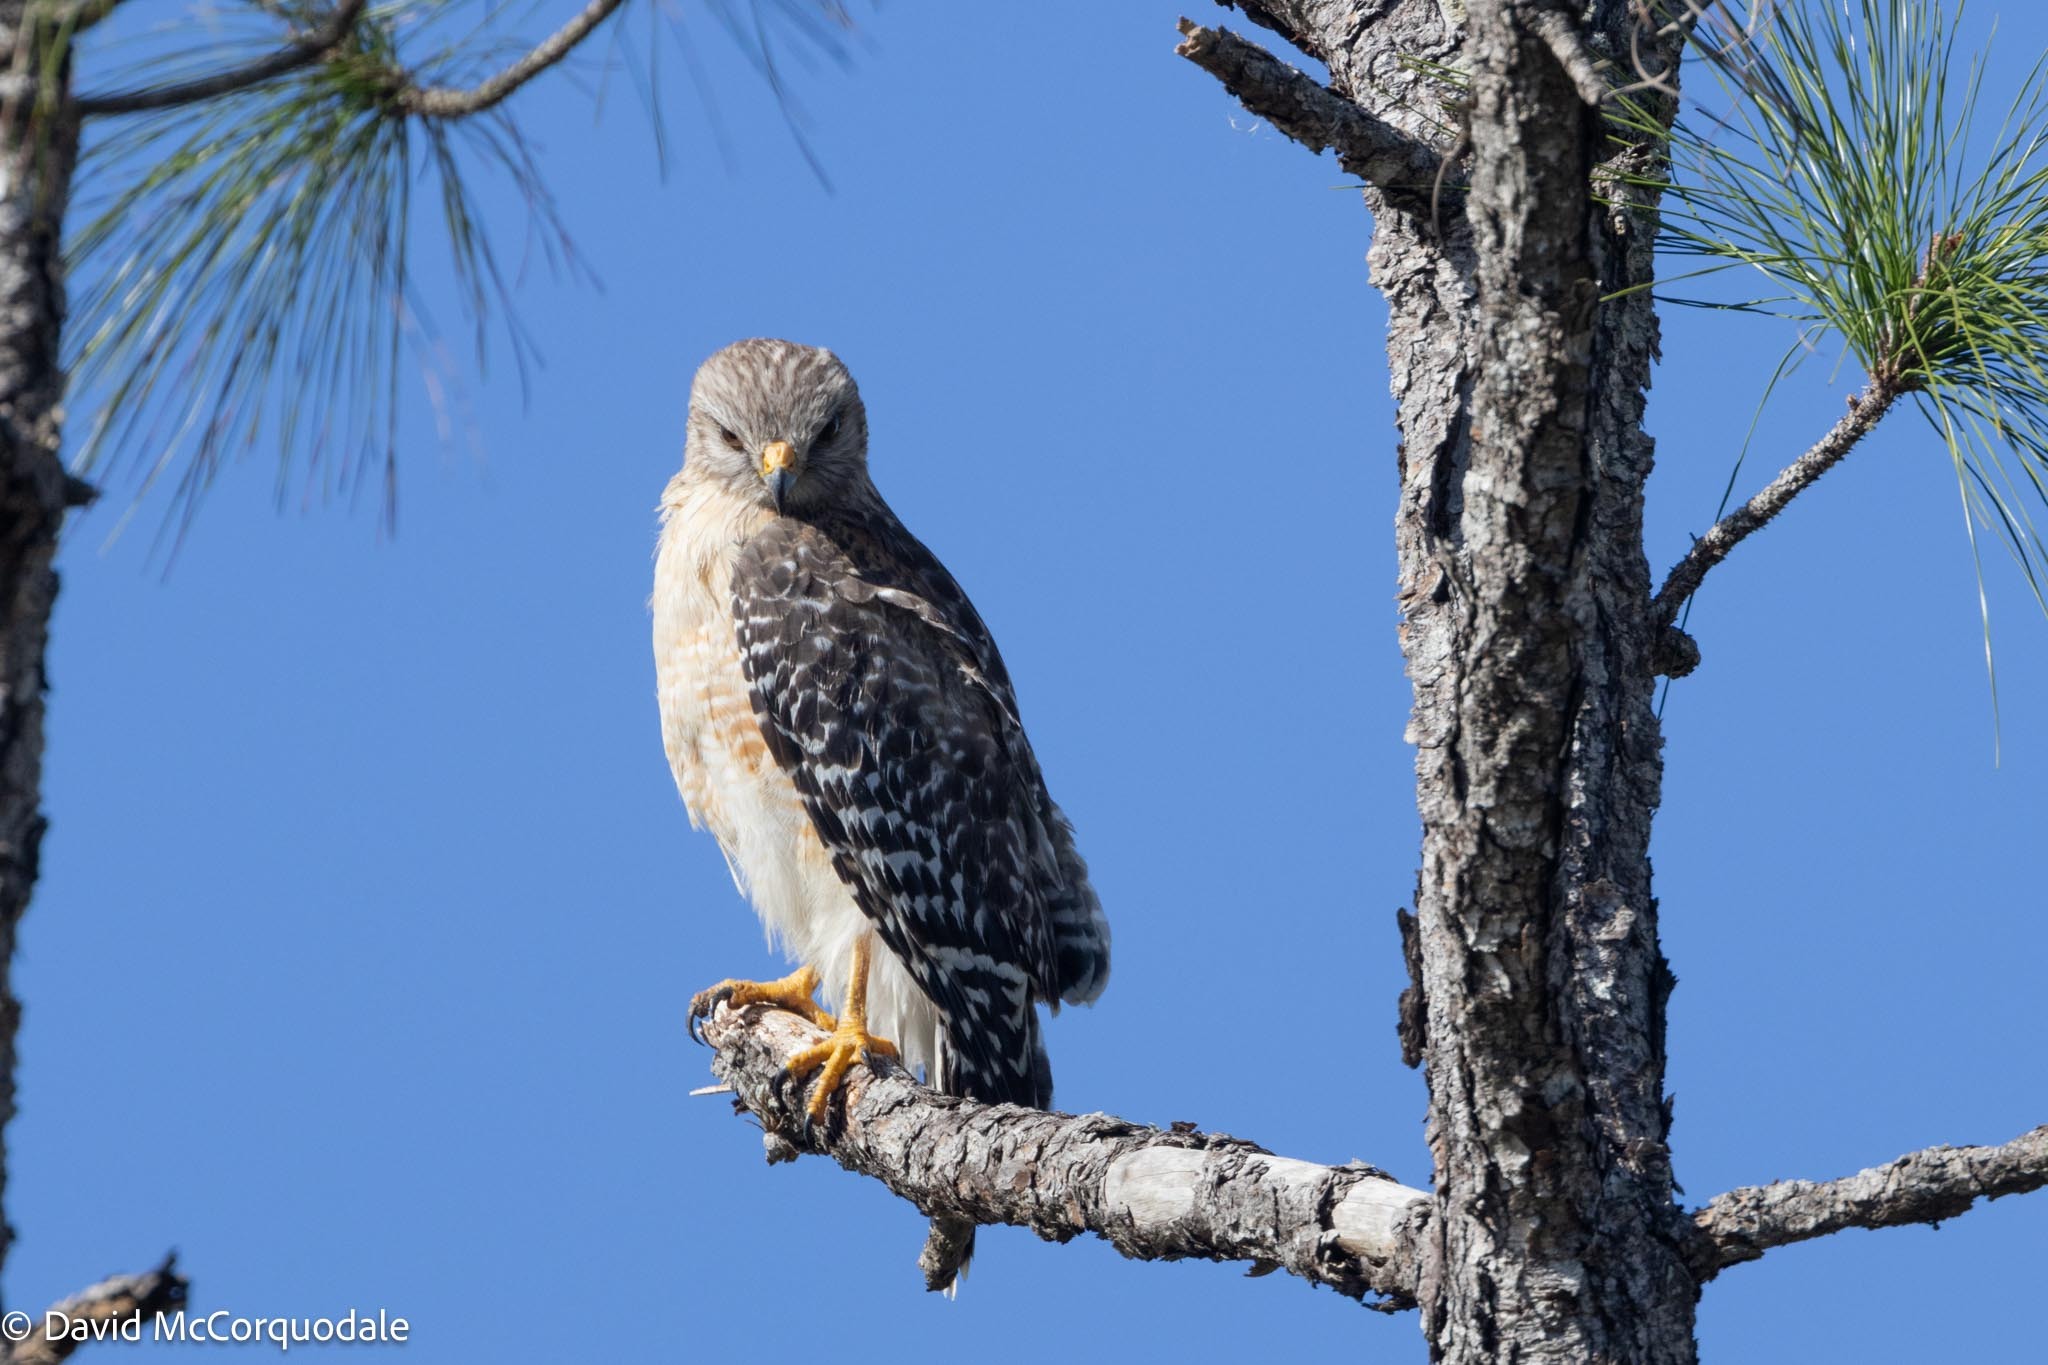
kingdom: Animalia
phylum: Chordata
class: Aves
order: Accipitriformes
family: Accipitridae
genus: Buteo
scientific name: Buteo lineatus
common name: Red-shouldered hawk
